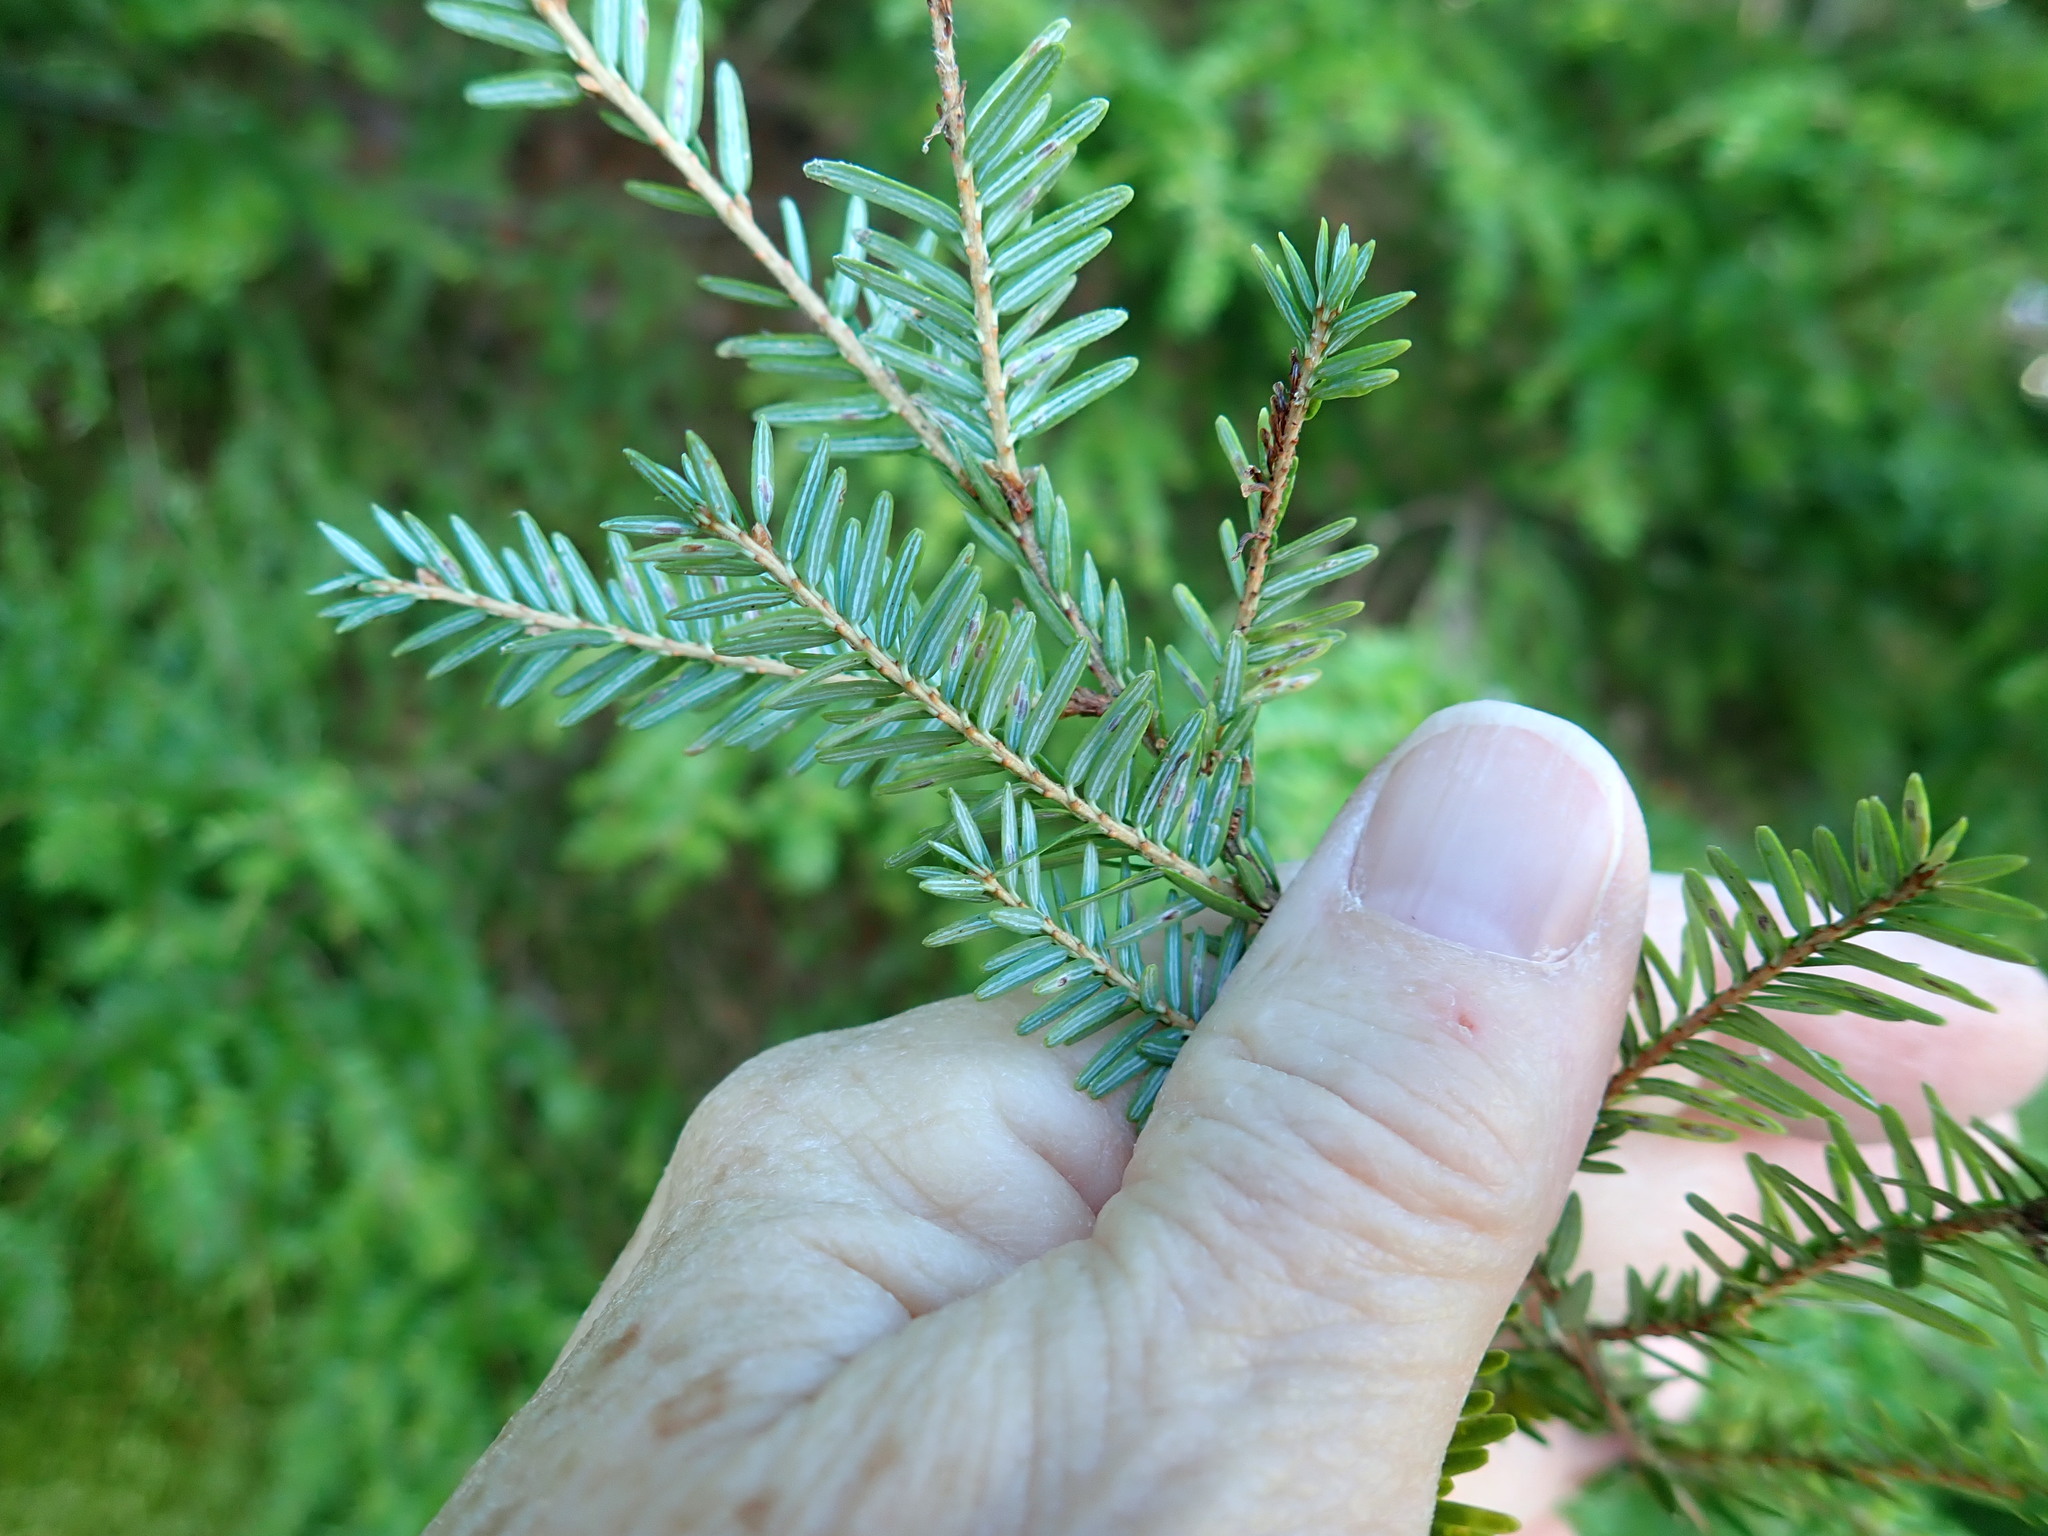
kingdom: Plantae
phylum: Tracheophyta
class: Pinopsida
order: Pinales
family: Pinaceae
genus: Tsuga
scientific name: Tsuga canadensis
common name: Eastern hemlock
